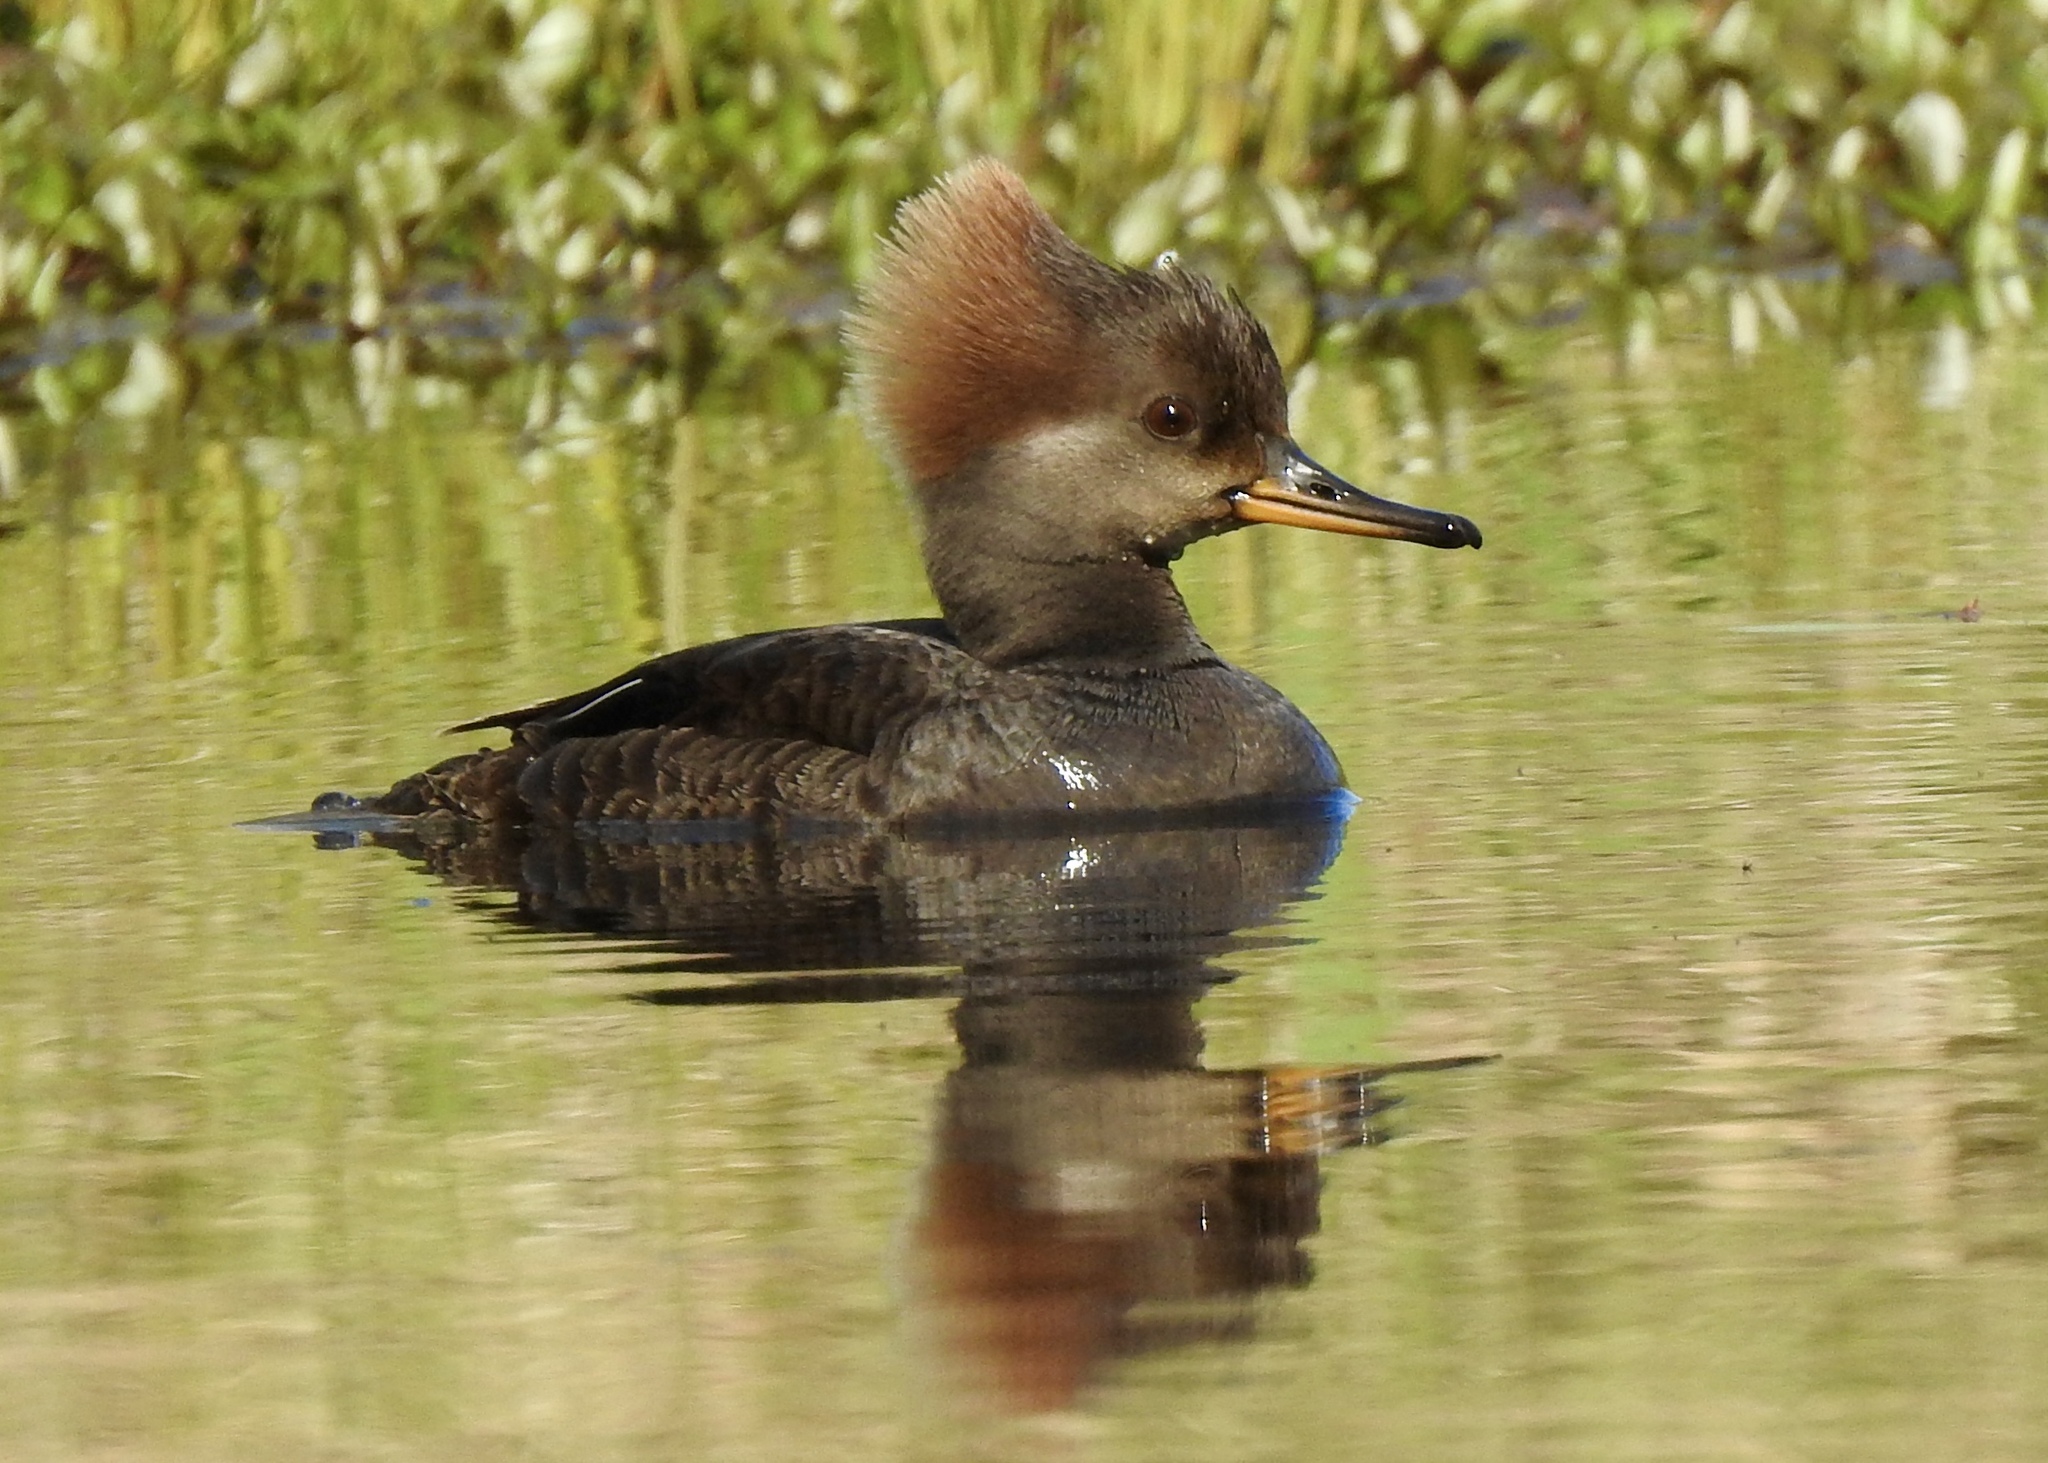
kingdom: Animalia
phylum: Chordata
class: Aves
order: Anseriformes
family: Anatidae
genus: Lophodytes
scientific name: Lophodytes cucullatus
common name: Hooded merganser
